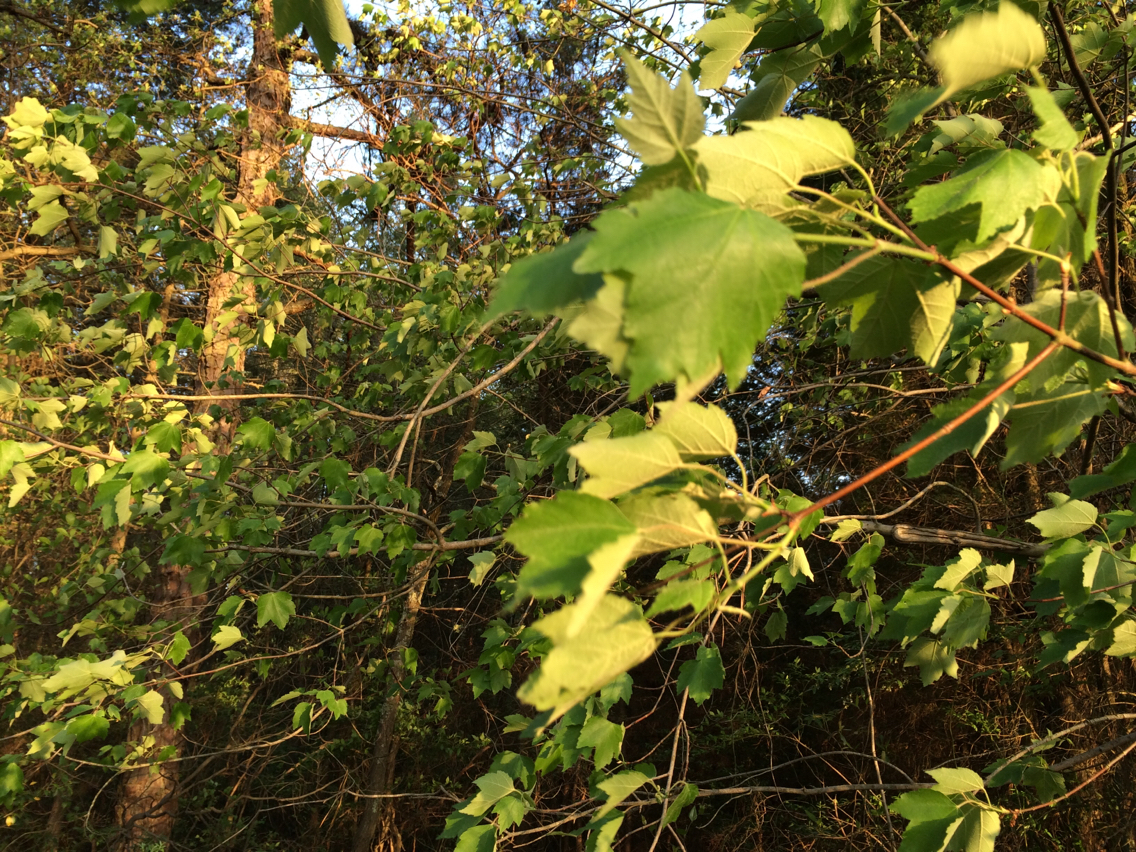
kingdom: Plantae
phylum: Tracheophyta
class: Magnoliopsida
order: Sapindales
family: Sapindaceae
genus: Acer
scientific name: Acer rubrum
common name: Red maple
